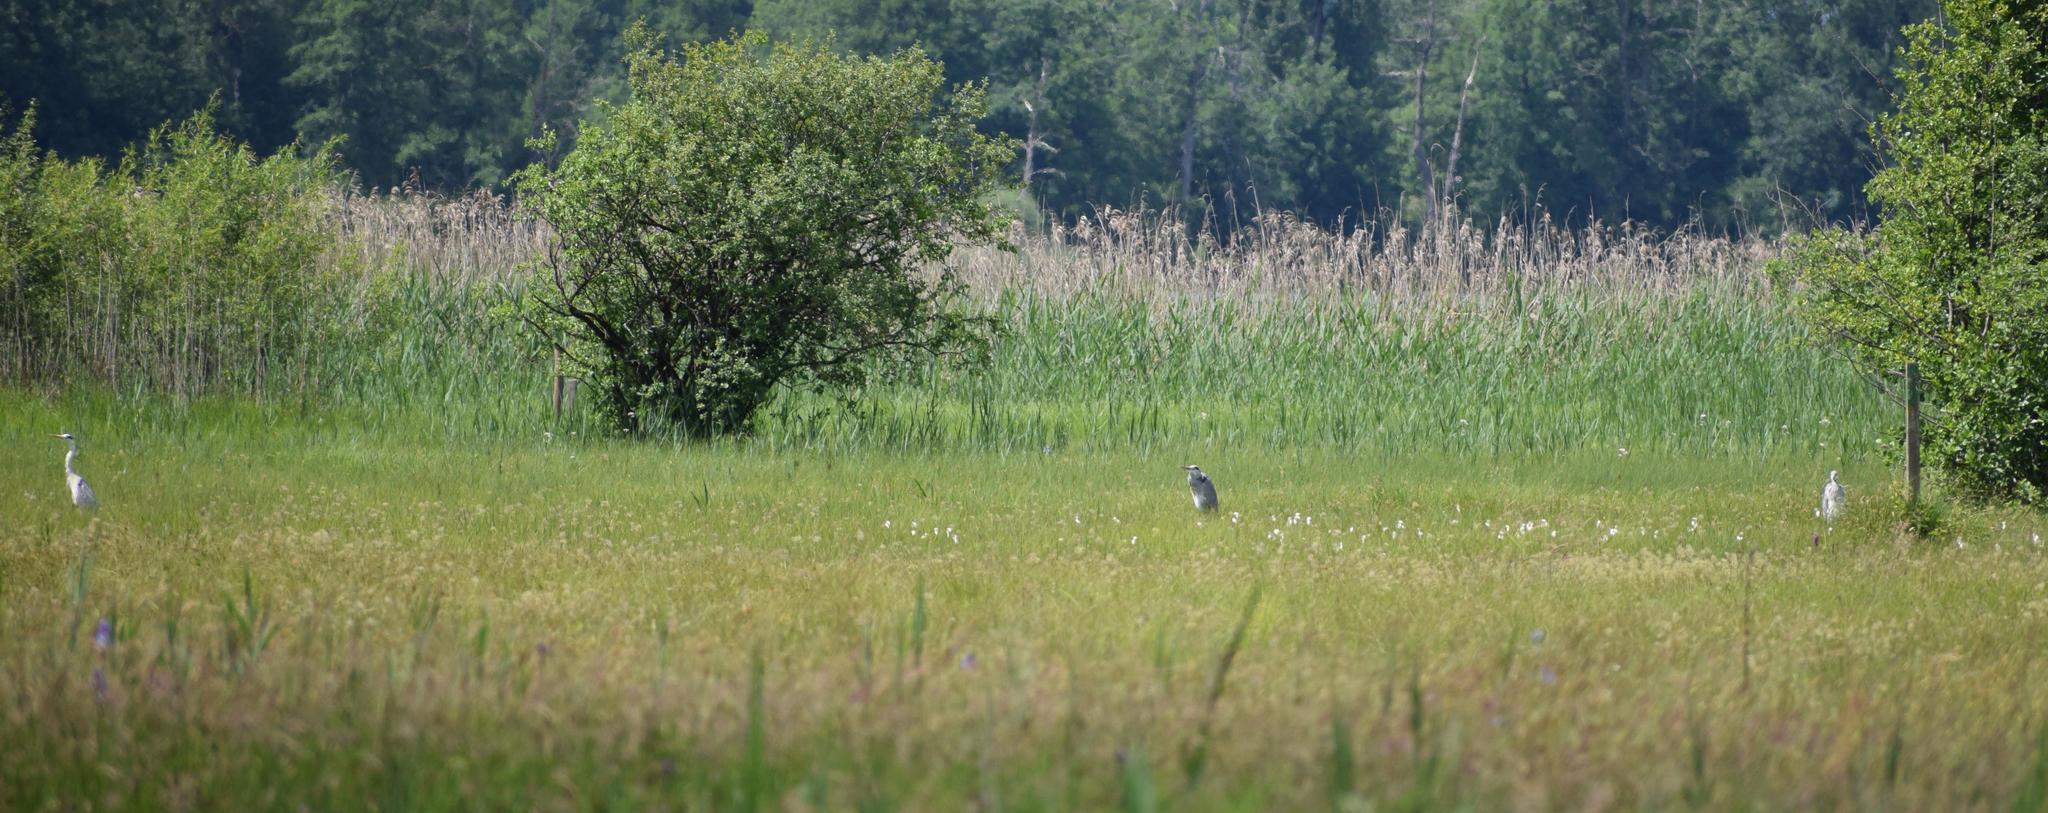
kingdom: Animalia
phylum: Chordata
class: Aves
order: Pelecaniformes
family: Ardeidae
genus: Ardea
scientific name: Ardea cinerea
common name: Grey heron
